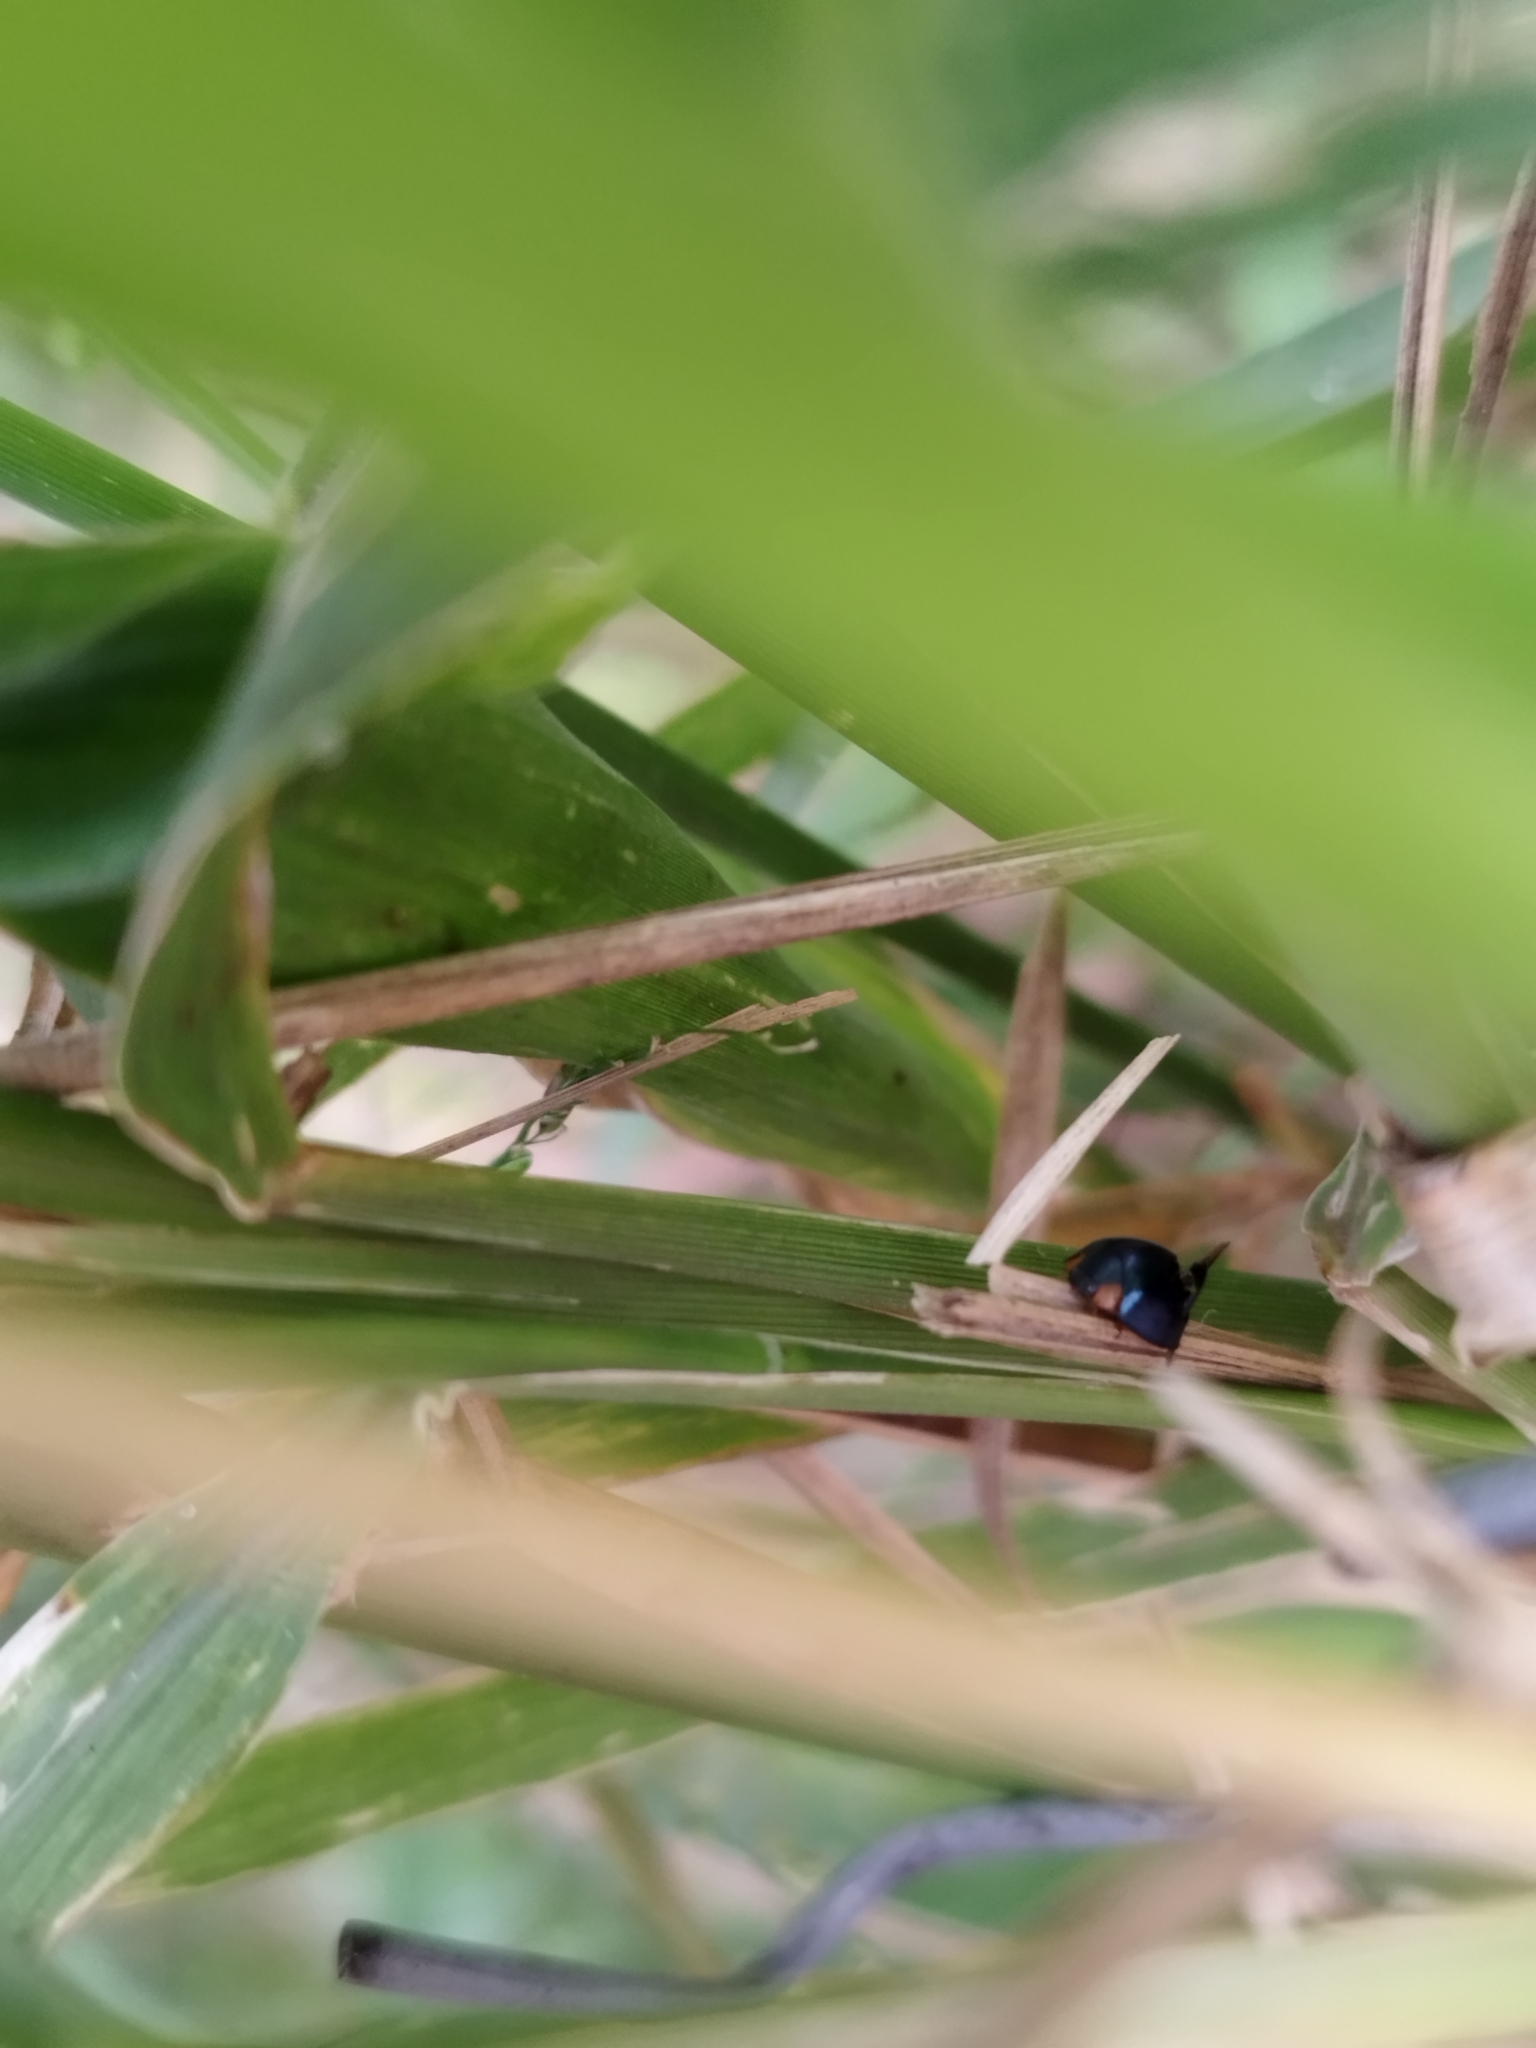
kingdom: Animalia
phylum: Arthropoda
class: Insecta
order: Coleoptera
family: Coccinellidae
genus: Curinus
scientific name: Curinus coeruleus
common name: Ladybird beetle
